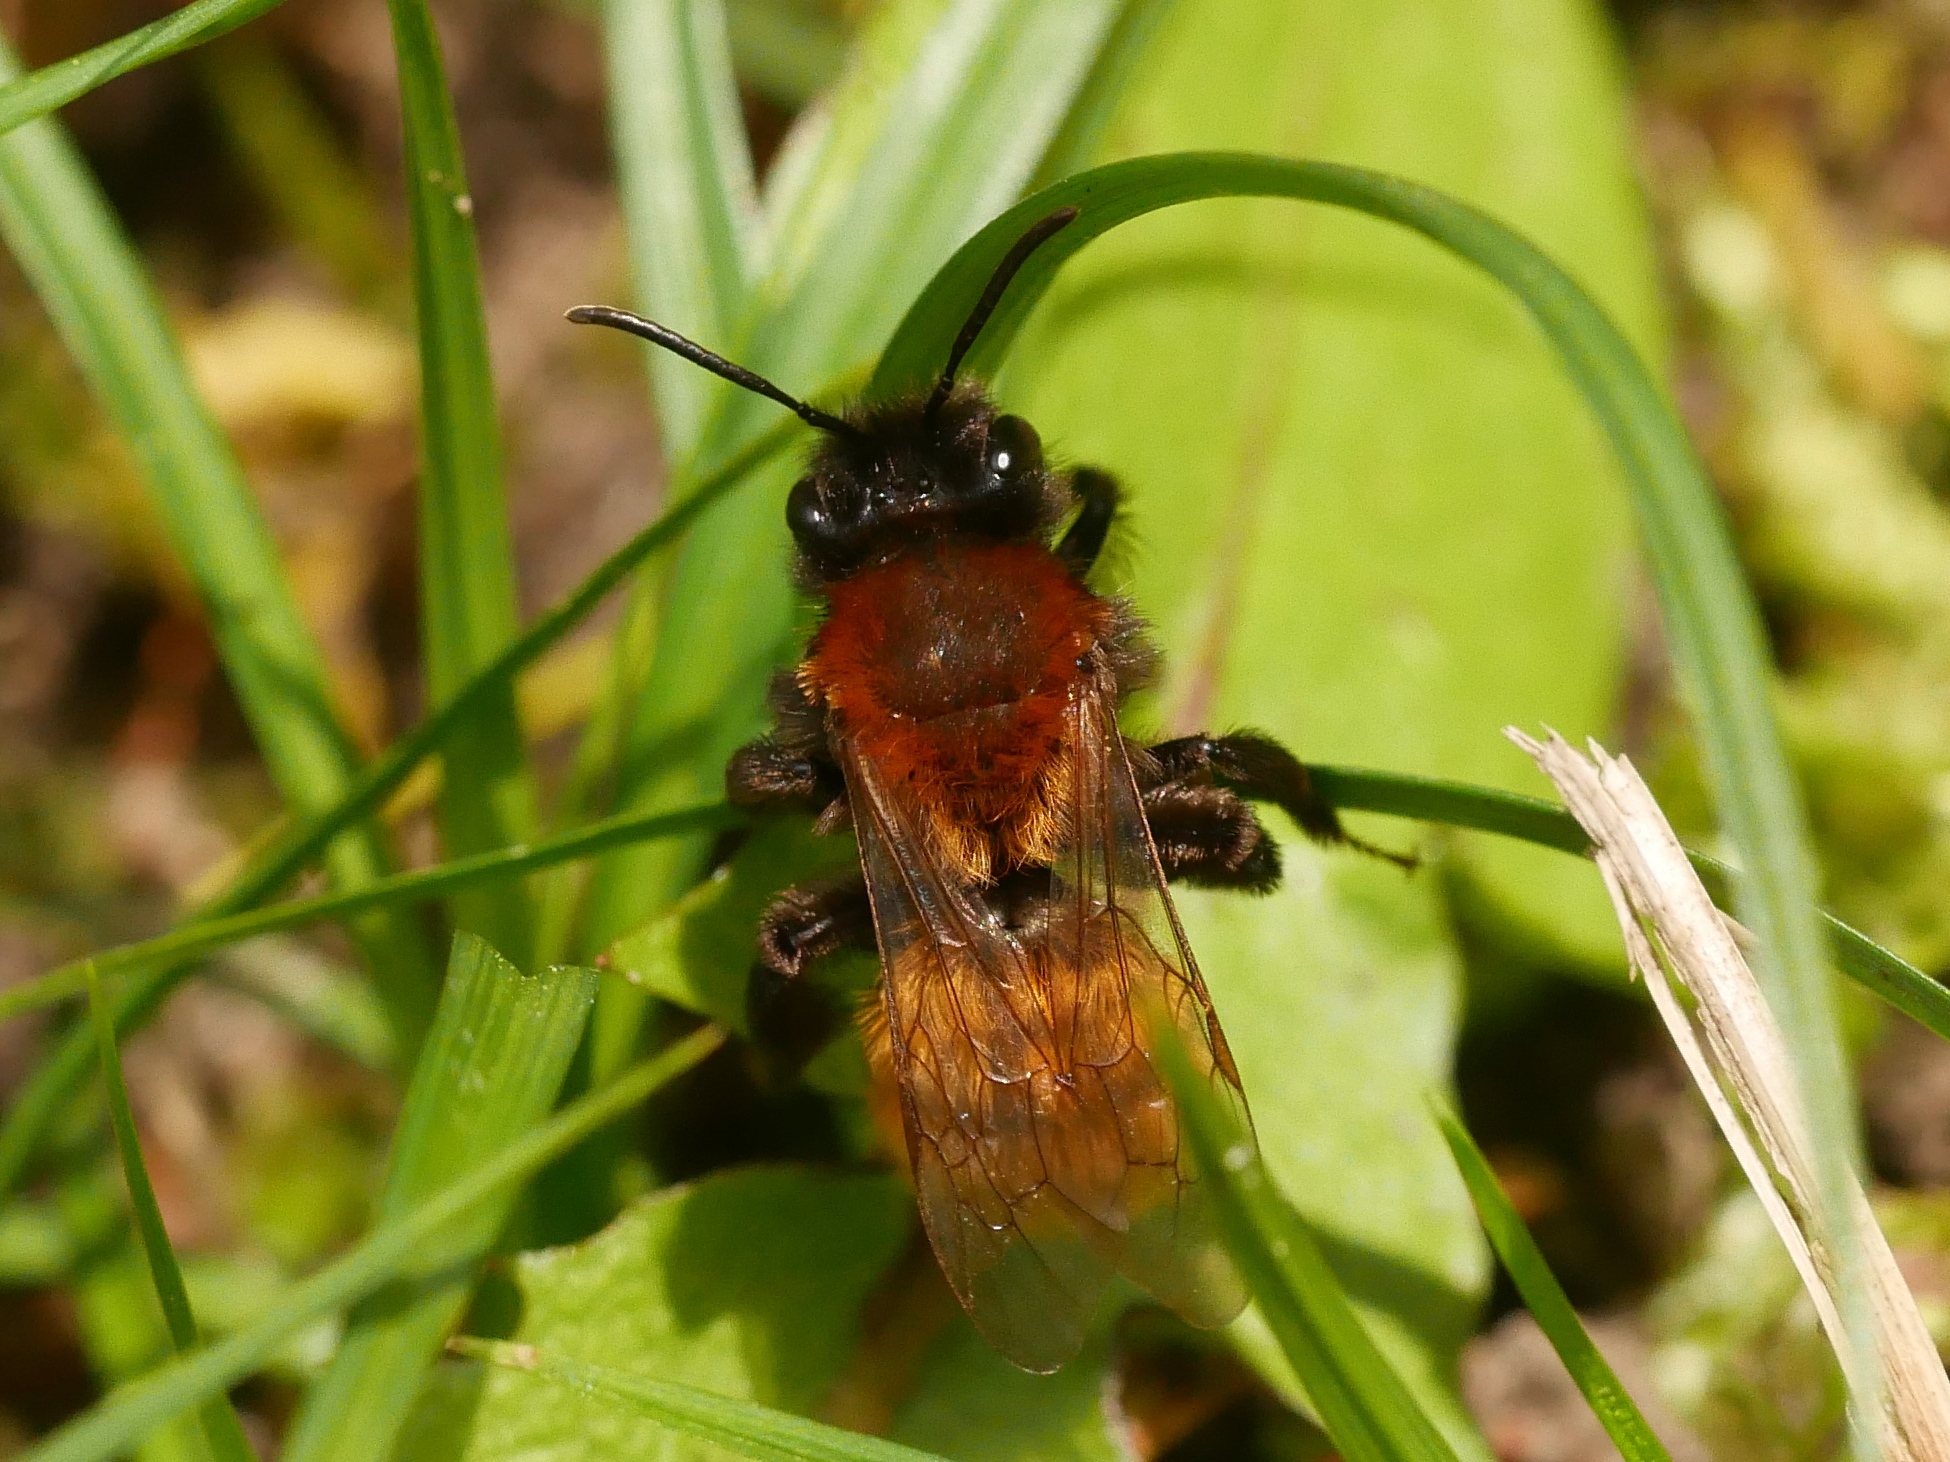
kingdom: Animalia
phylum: Arthropoda
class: Insecta
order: Hymenoptera
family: Andrenidae
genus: Andrena
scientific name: Andrena fulva
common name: Tawny mining bee
